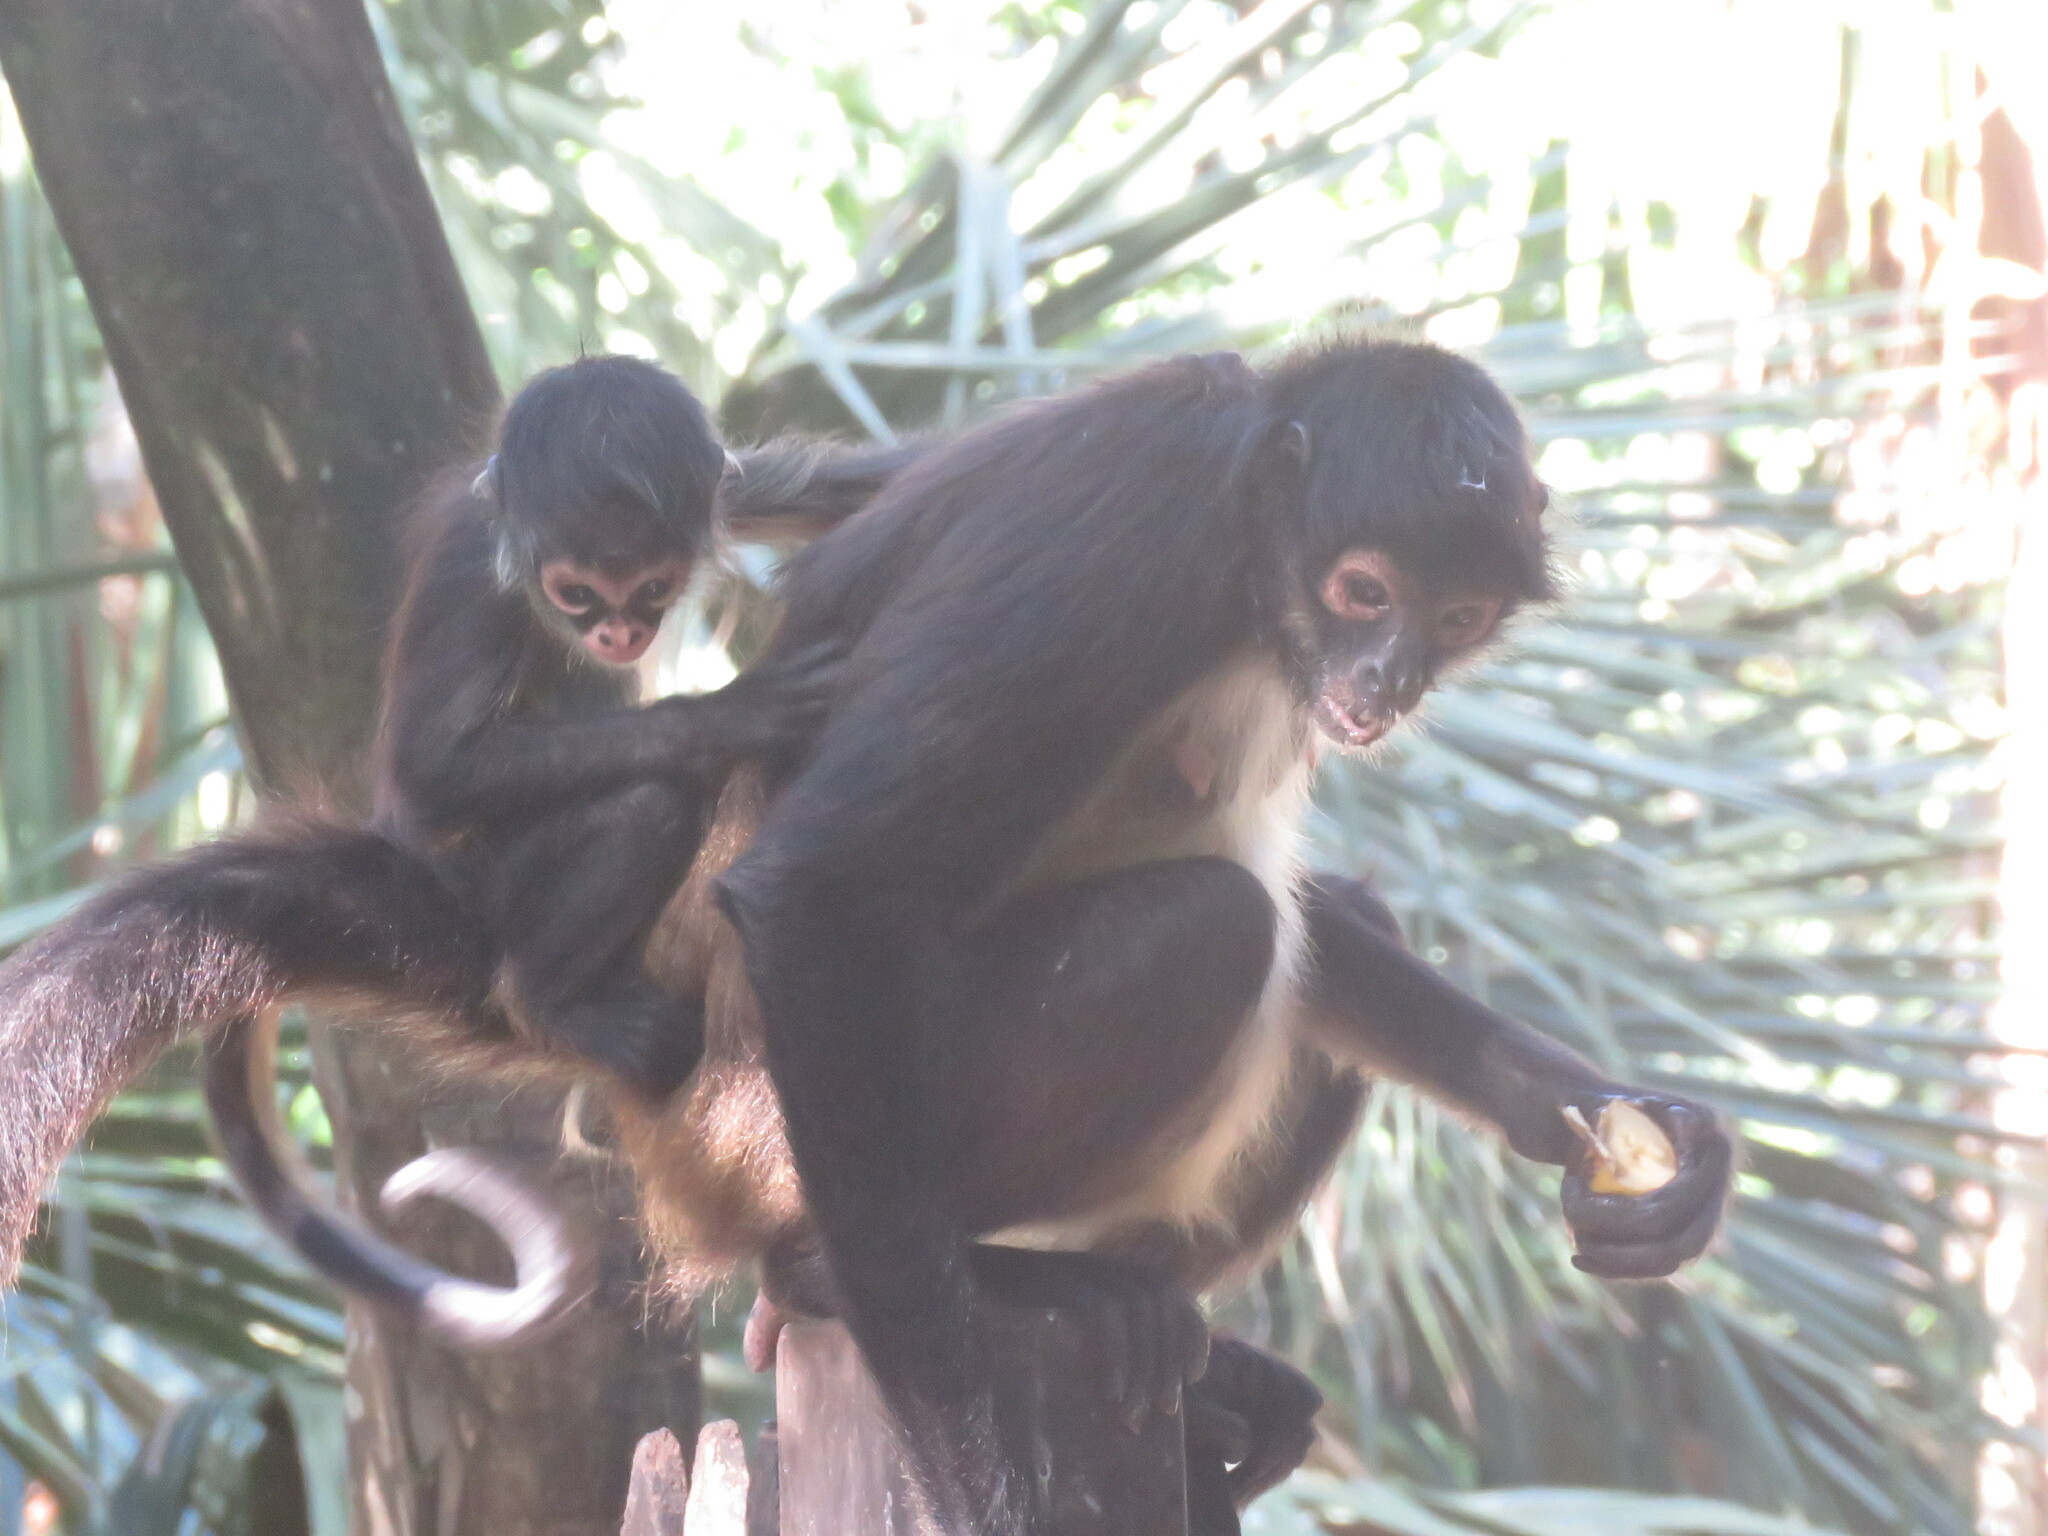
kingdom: Animalia
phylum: Chordata
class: Mammalia
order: Primates
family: Atelidae
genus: Ateles
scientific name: Ateles geoffroyi
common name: Black-handed spider monkey
